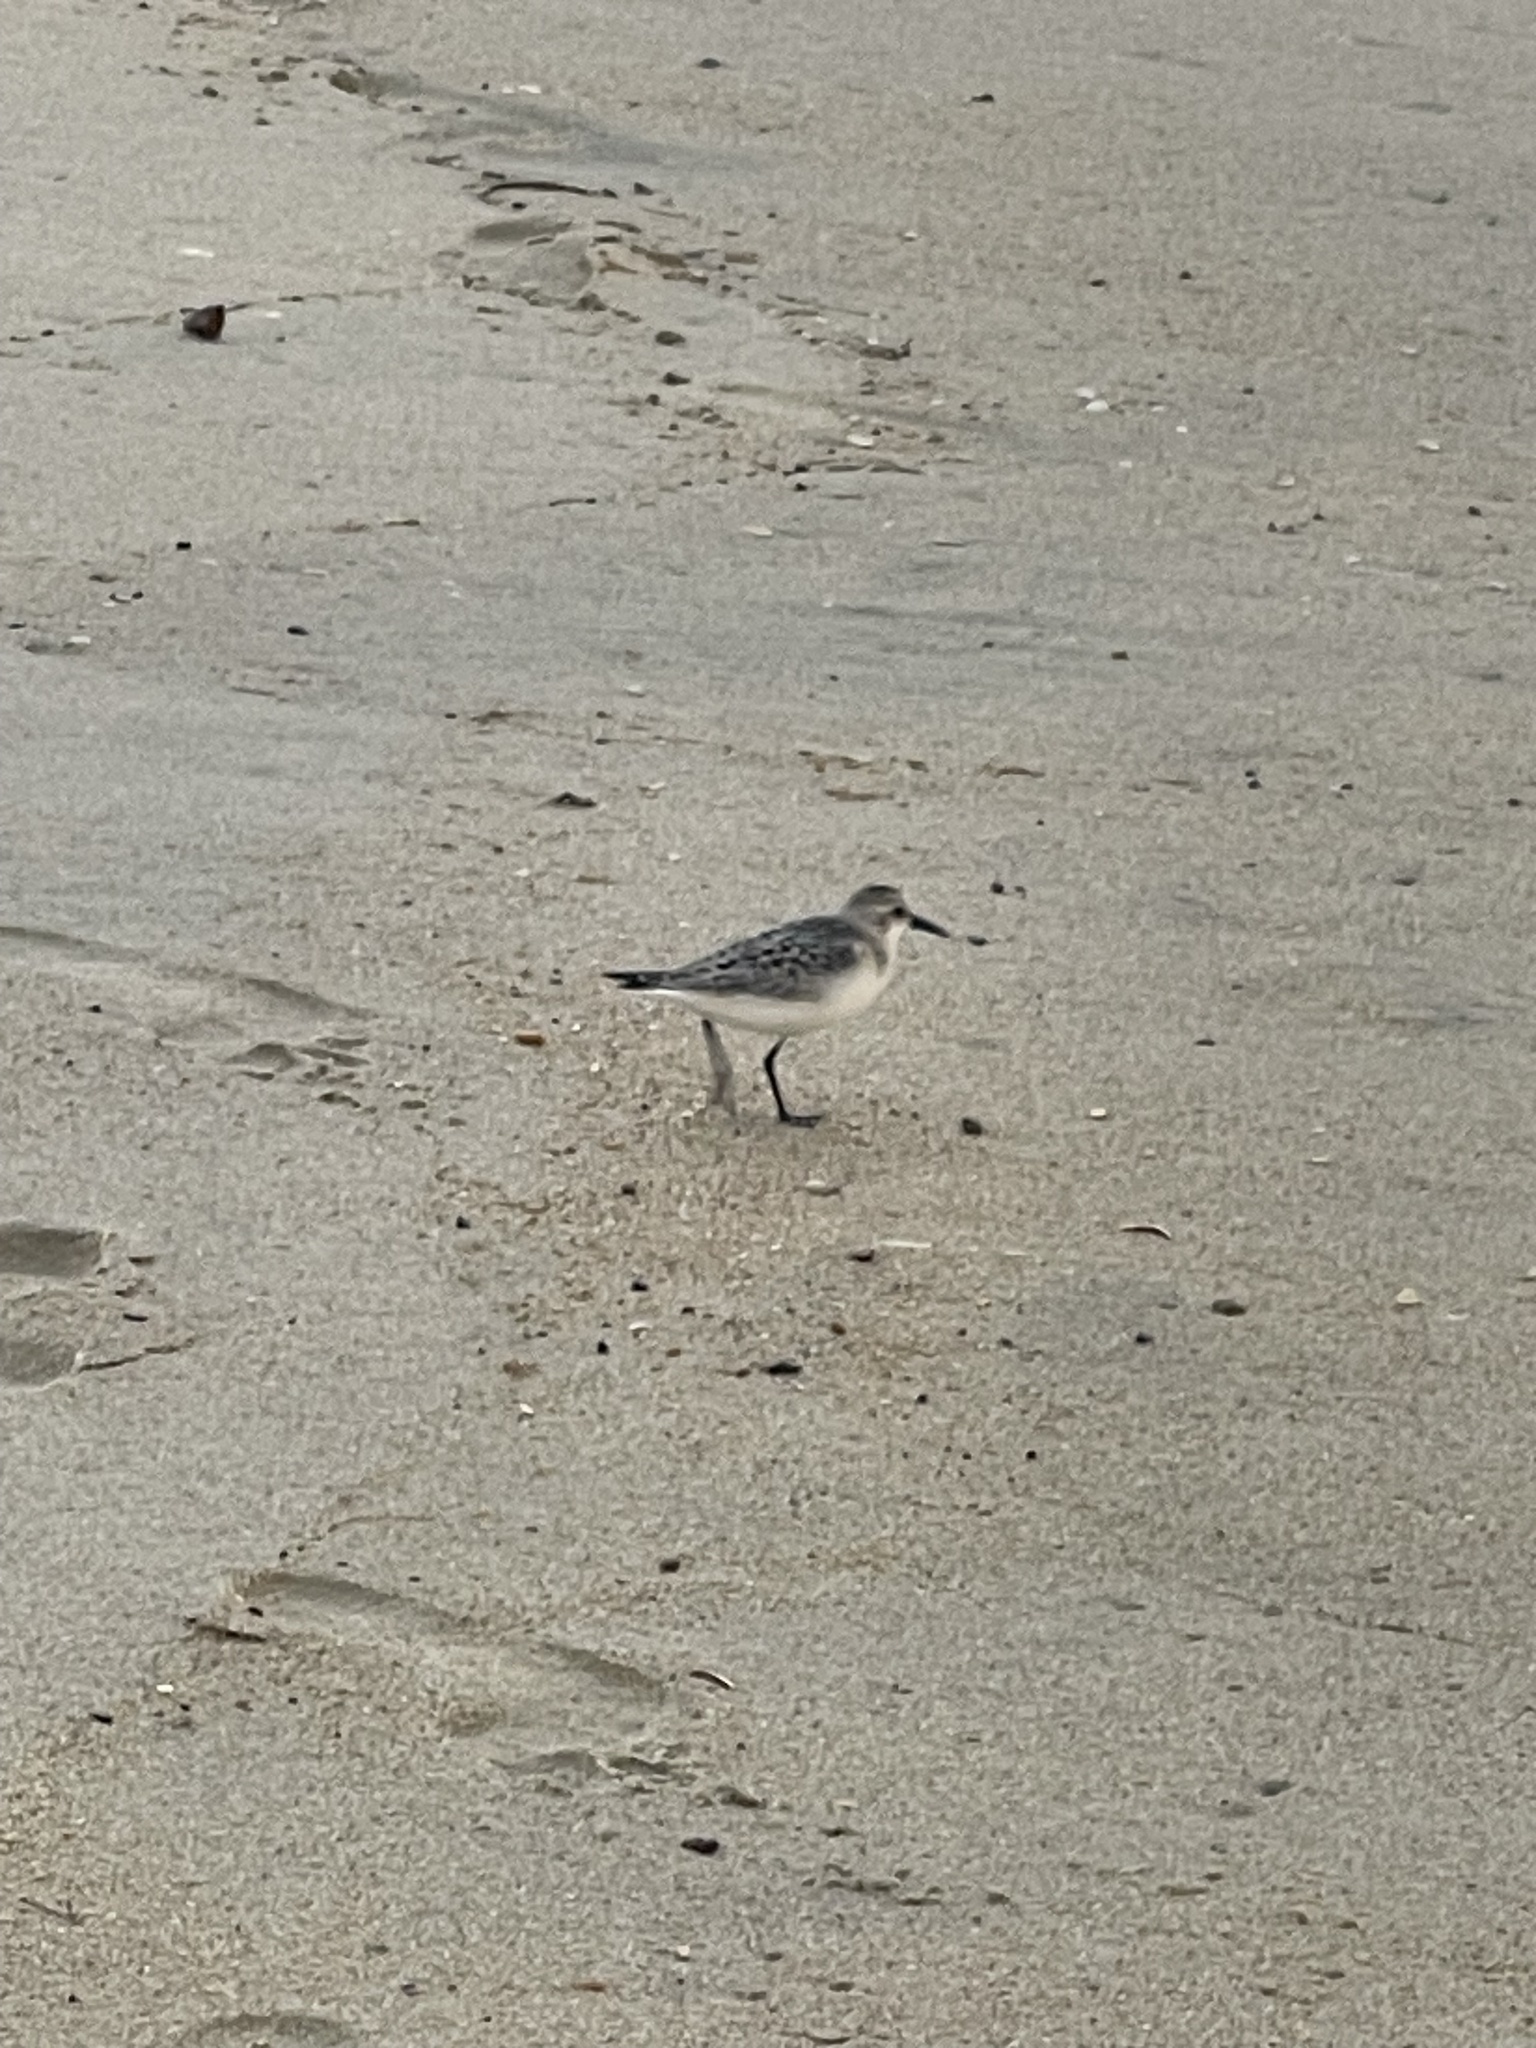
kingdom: Animalia
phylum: Chordata
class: Aves
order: Charadriiformes
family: Scolopacidae
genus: Calidris
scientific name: Calidris alba
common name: Sanderling
